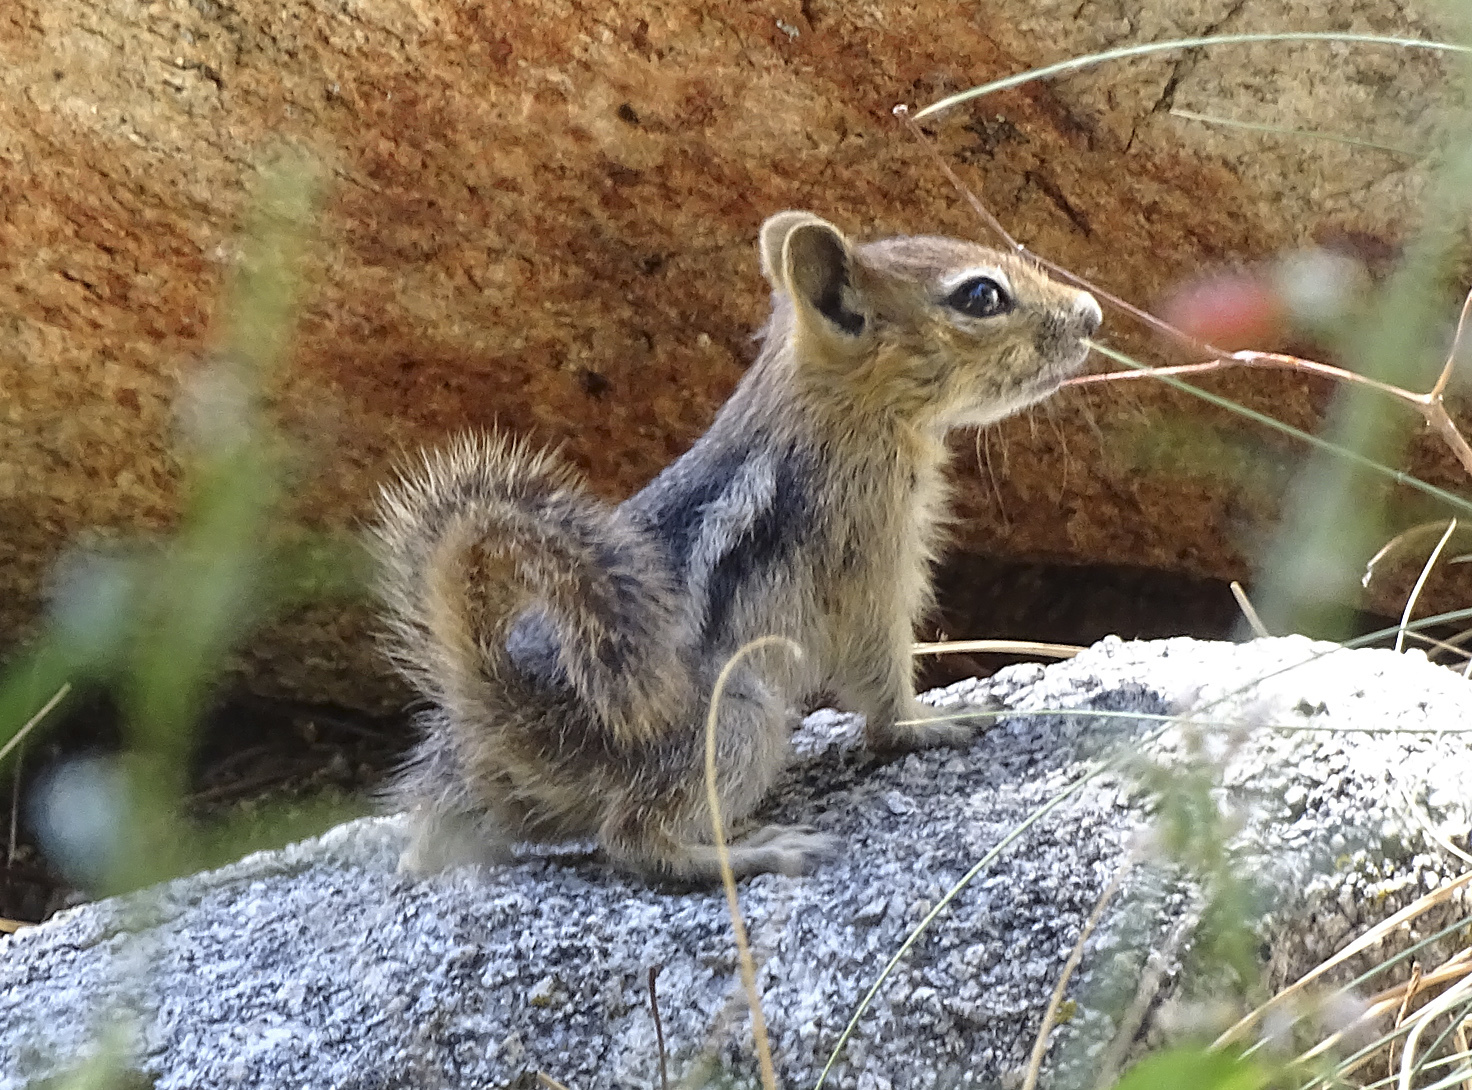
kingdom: Animalia
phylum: Chordata
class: Mammalia
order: Rodentia
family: Sciuridae
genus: Callospermophilus
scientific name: Callospermophilus lateralis
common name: Golden-mantled ground squirrel
